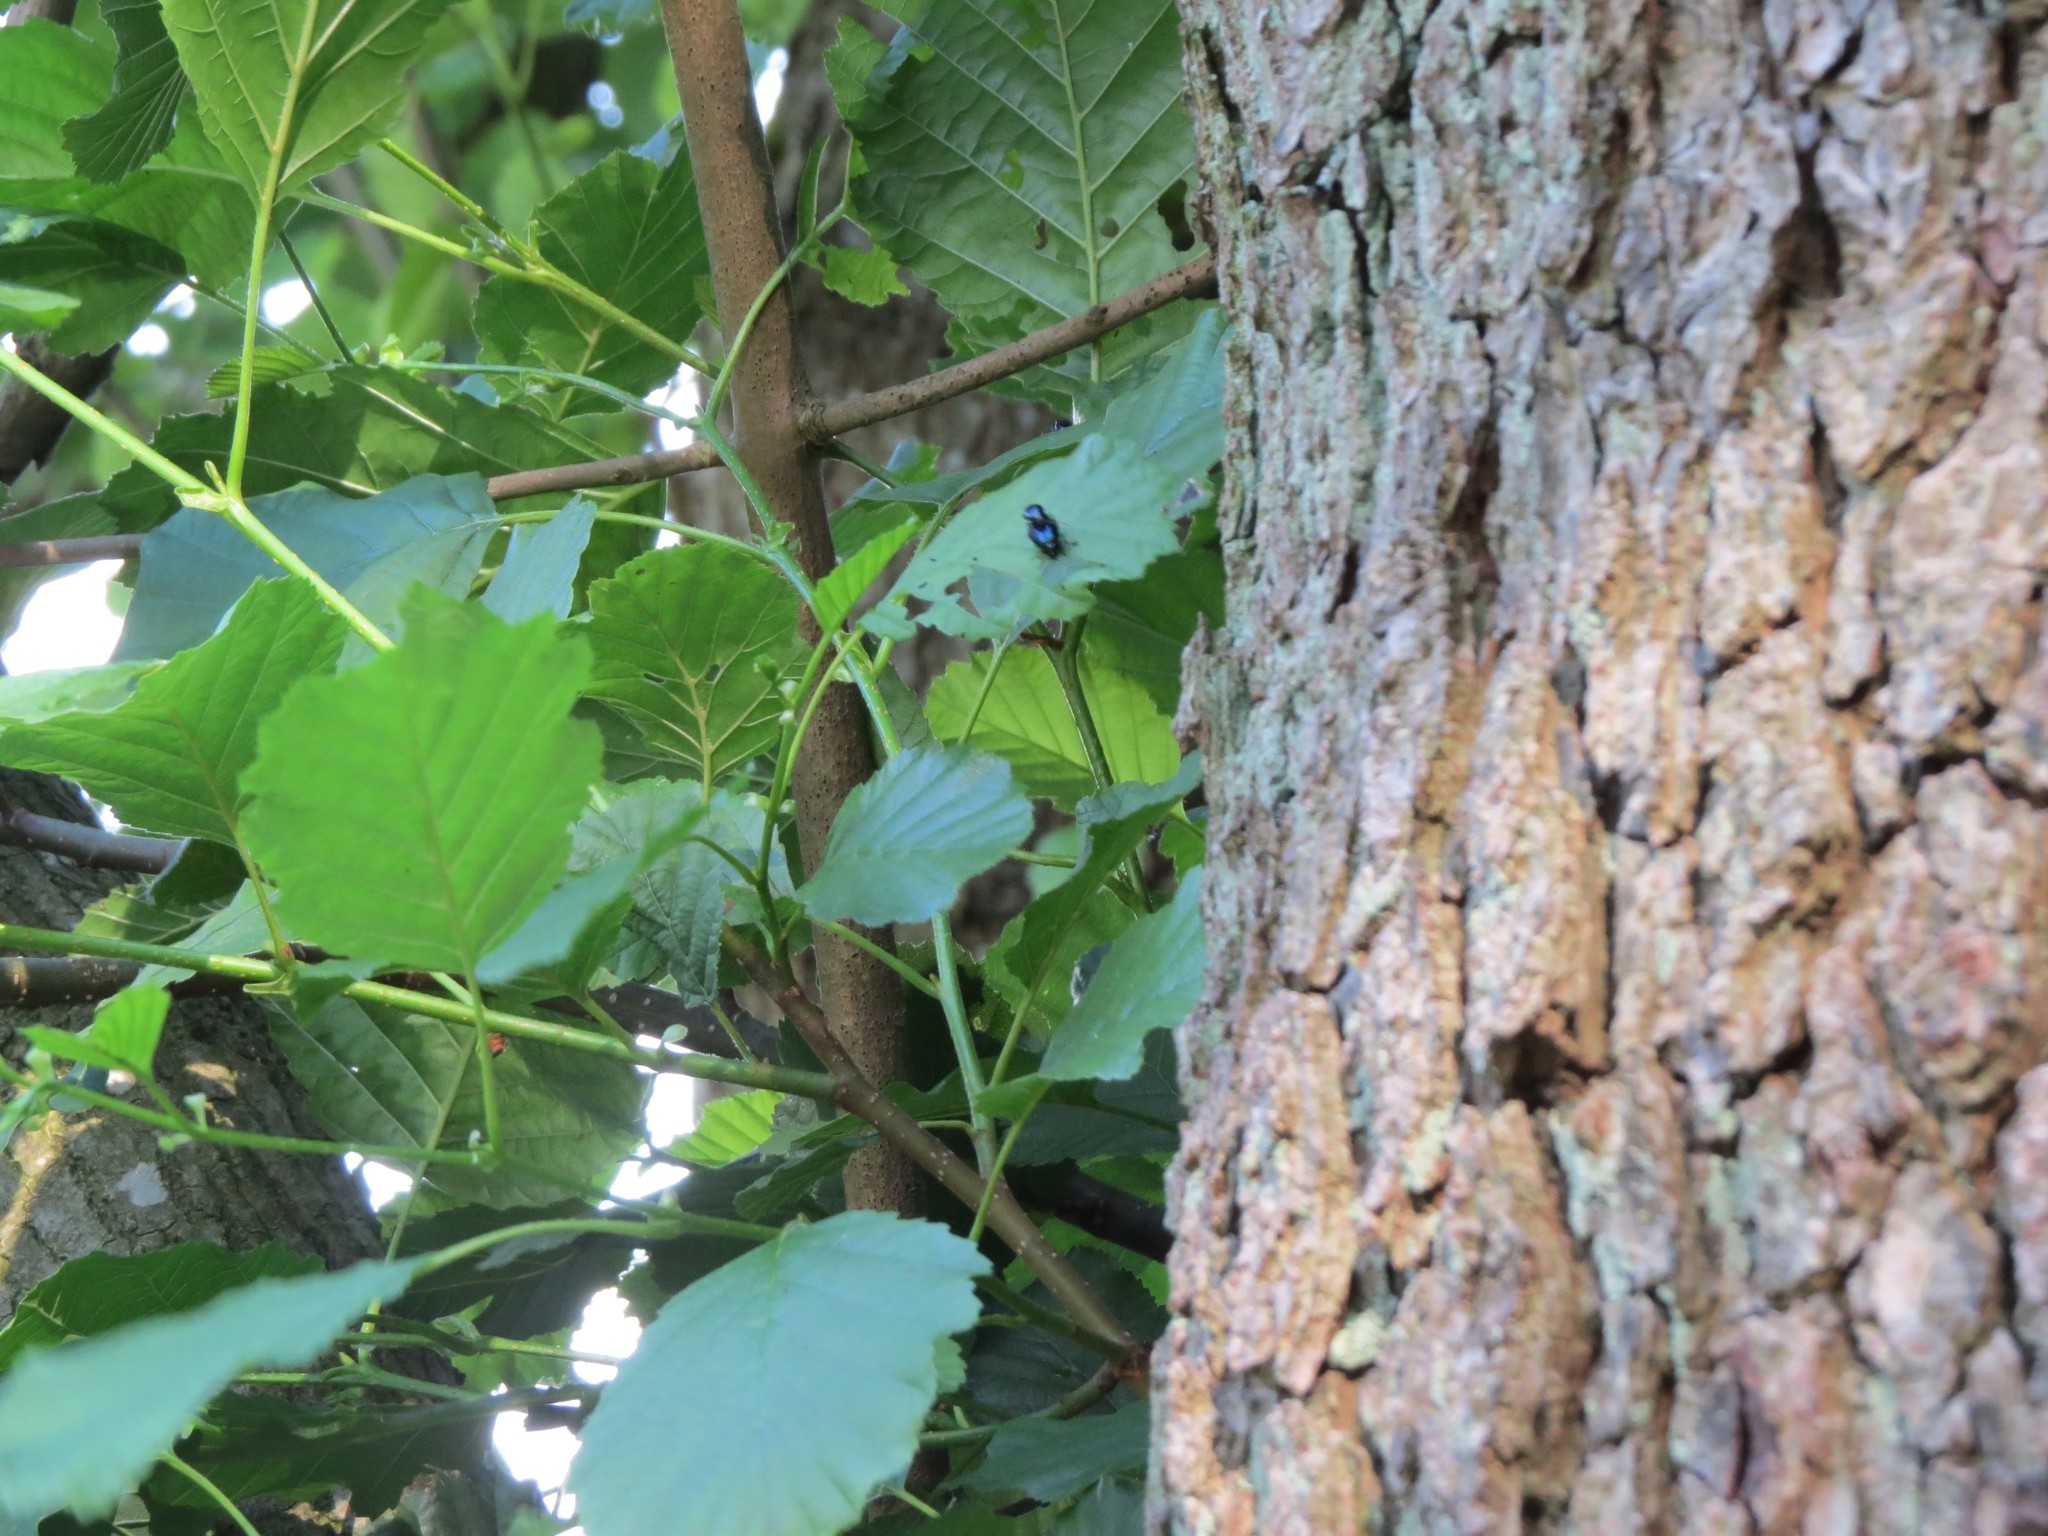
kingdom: Animalia
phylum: Arthropoda
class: Insecta
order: Coleoptera
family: Chrysomelidae
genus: Agelastica
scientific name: Agelastica alni
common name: Alder leaf beetle
